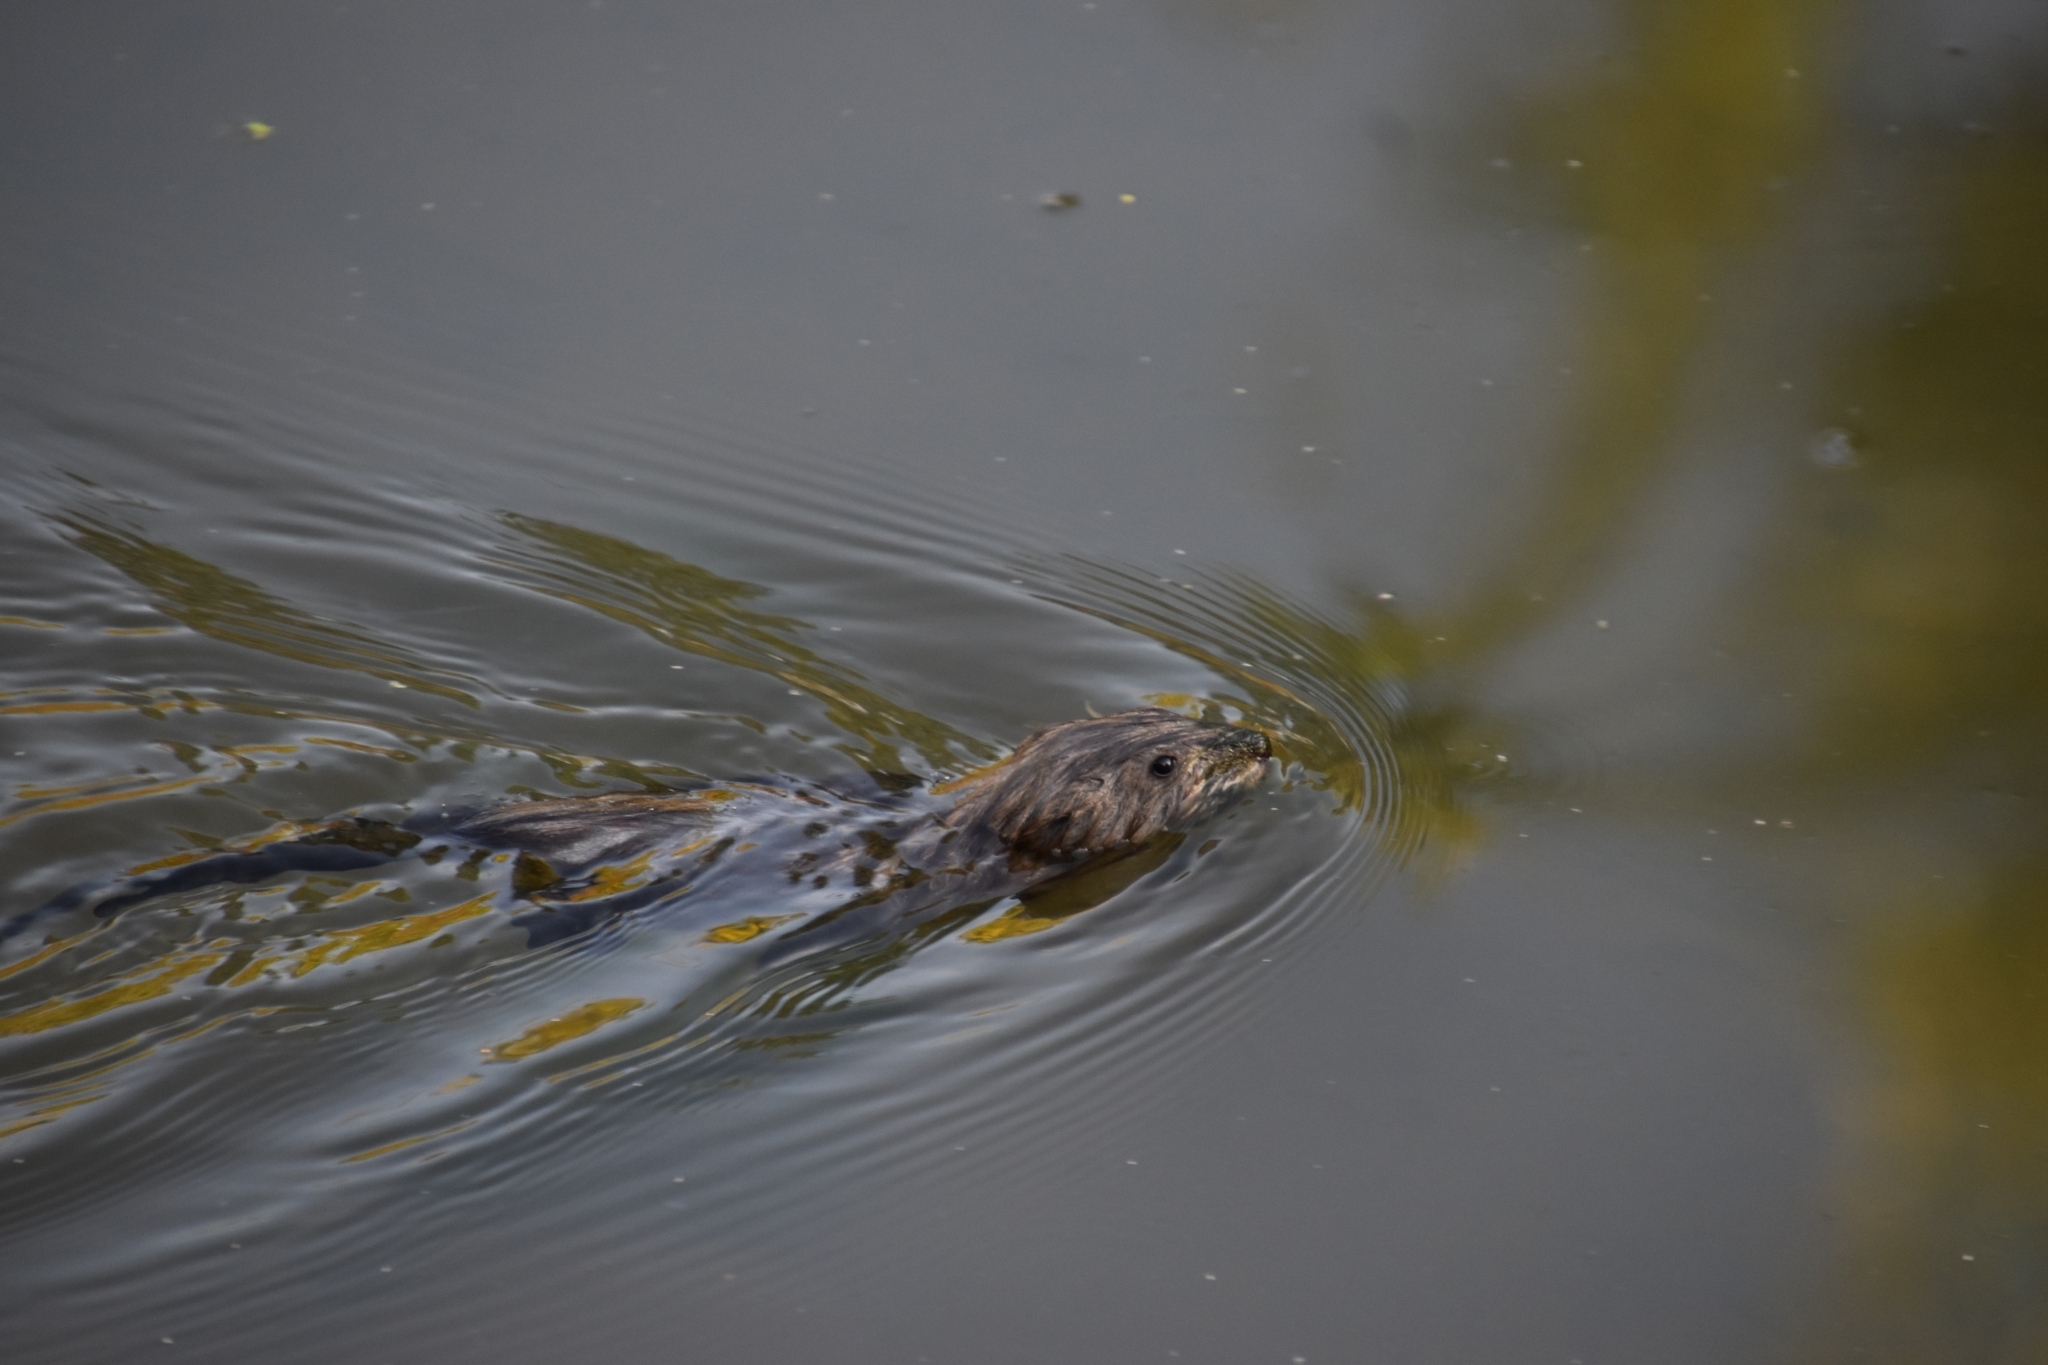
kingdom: Animalia
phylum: Chordata
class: Mammalia
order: Rodentia
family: Cricetidae
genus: Ondatra
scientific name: Ondatra zibethicus
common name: Muskrat
